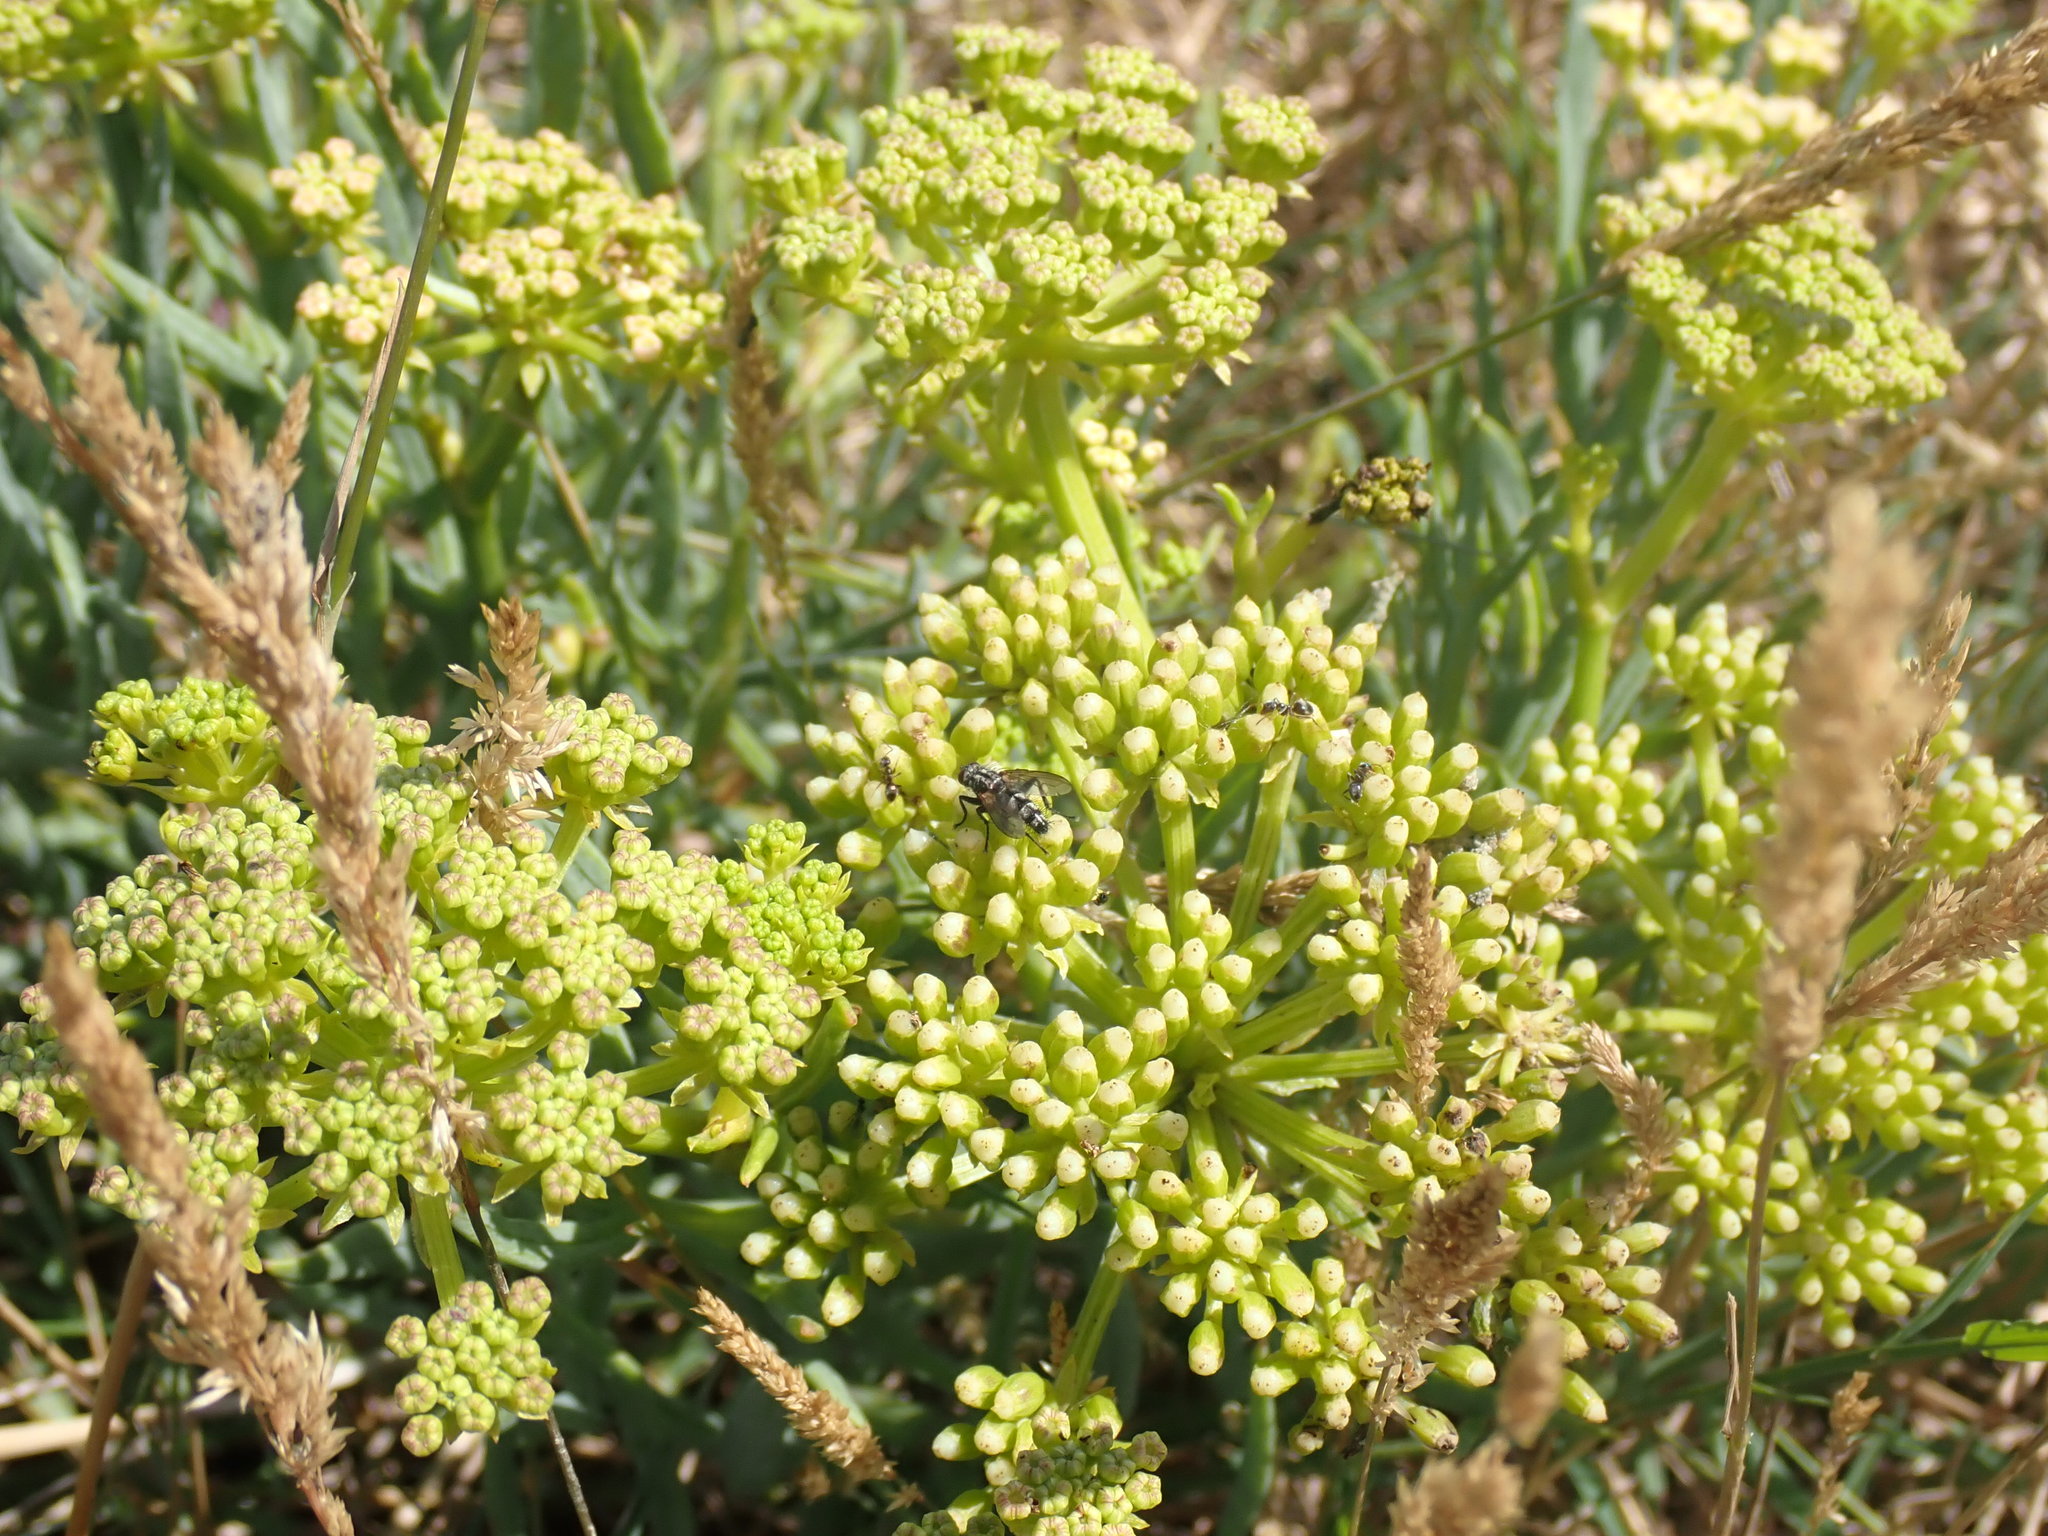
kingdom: Plantae
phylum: Tracheophyta
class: Magnoliopsida
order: Apiales
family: Apiaceae
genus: Crithmum
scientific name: Crithmum maritimum
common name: Rock samphire
